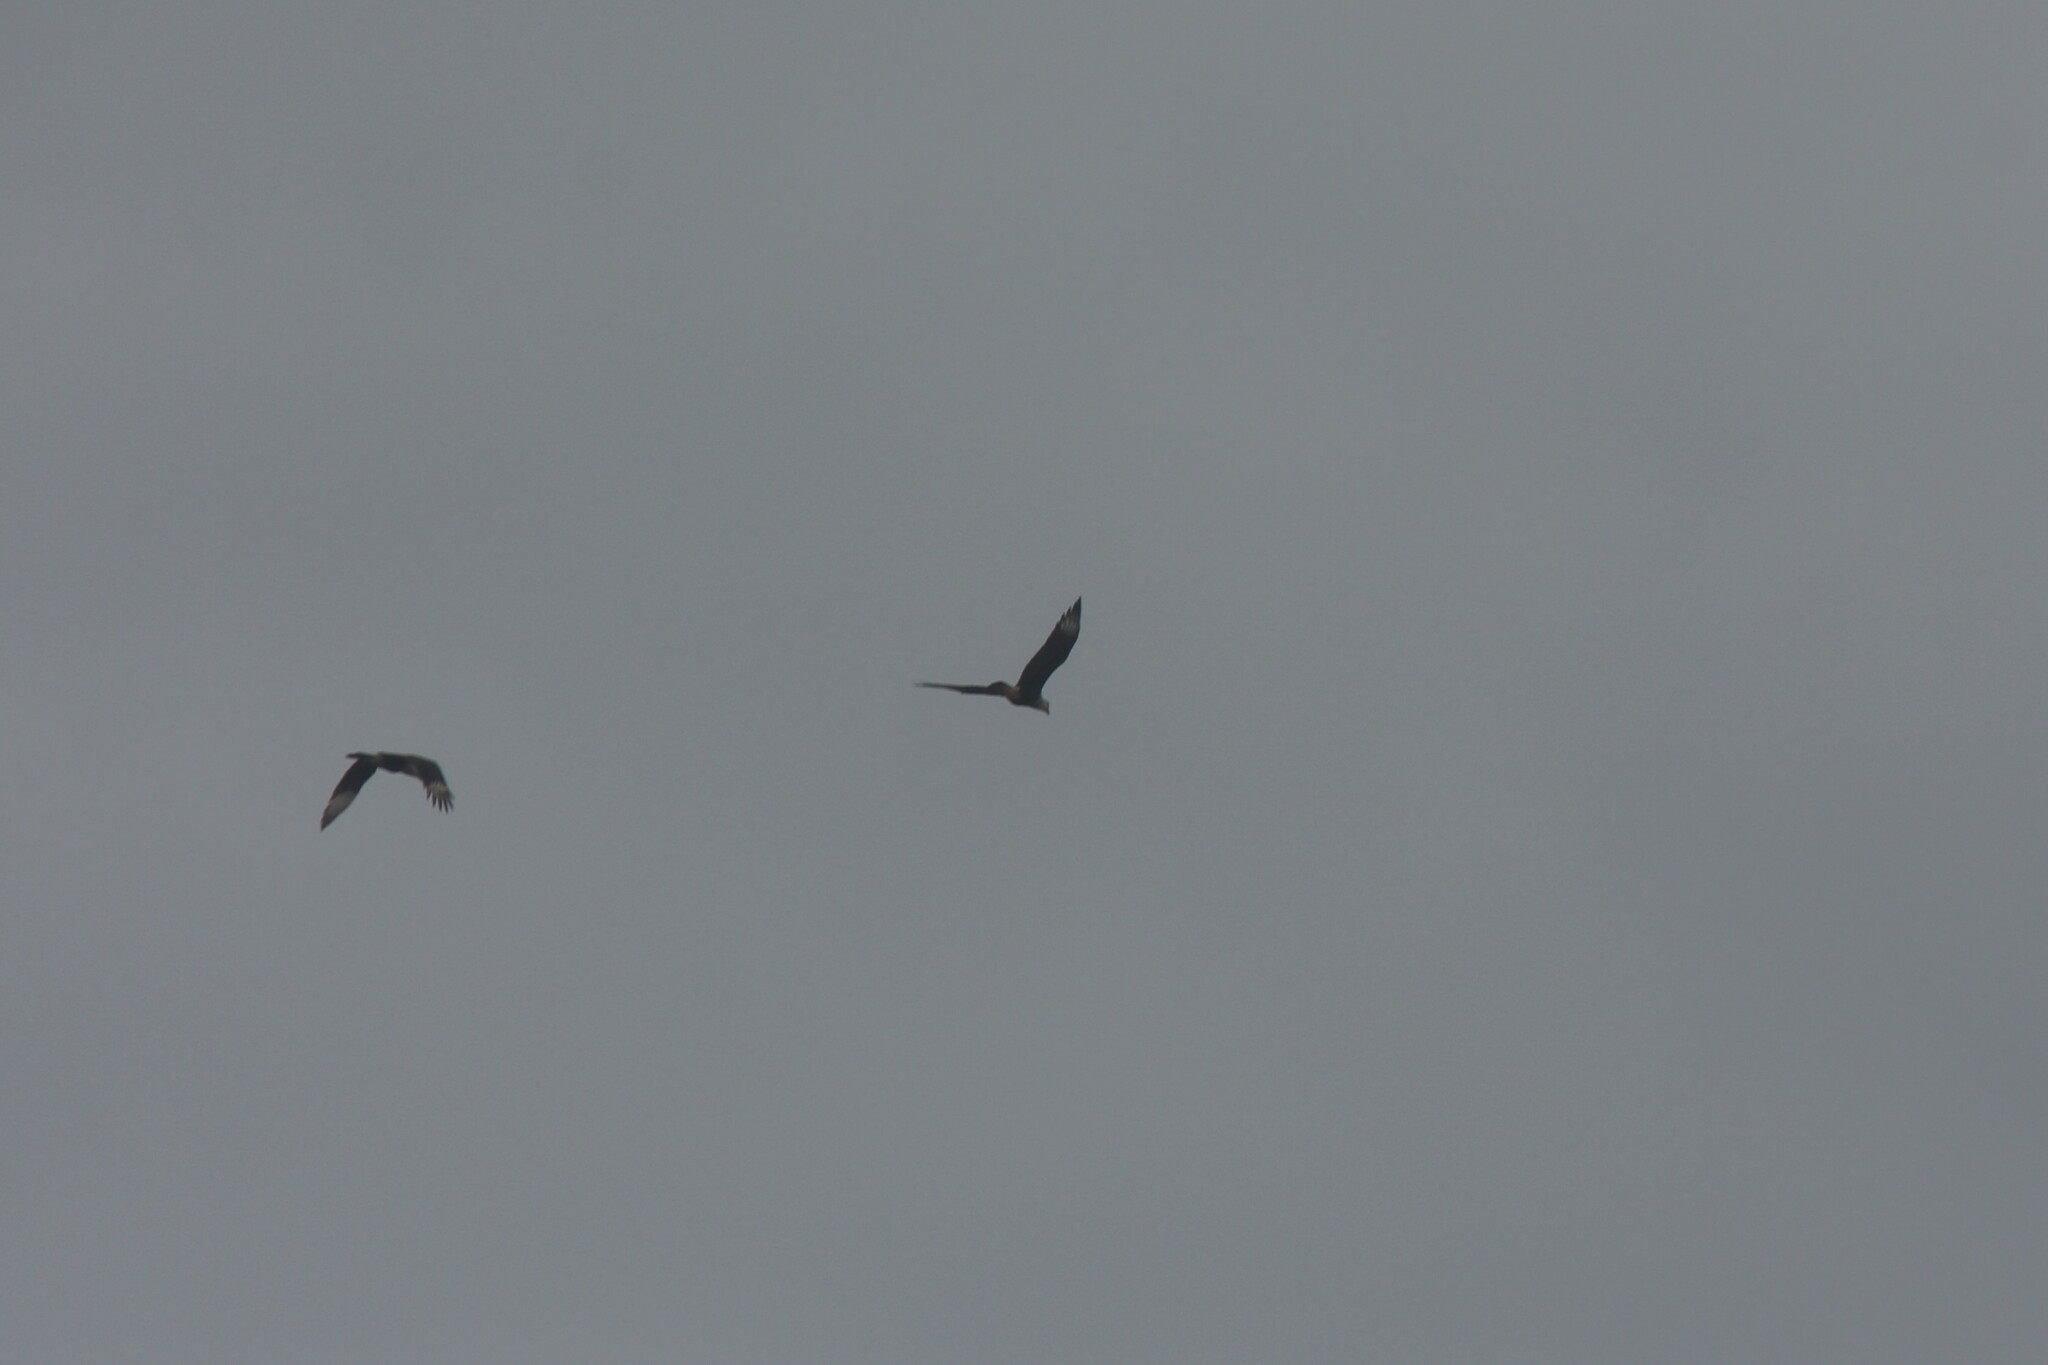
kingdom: Animalia
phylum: Chordata
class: Aves
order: Falconiformes
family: Falconidae
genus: Caracara
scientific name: Caracara plancus
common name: Southern caracara
